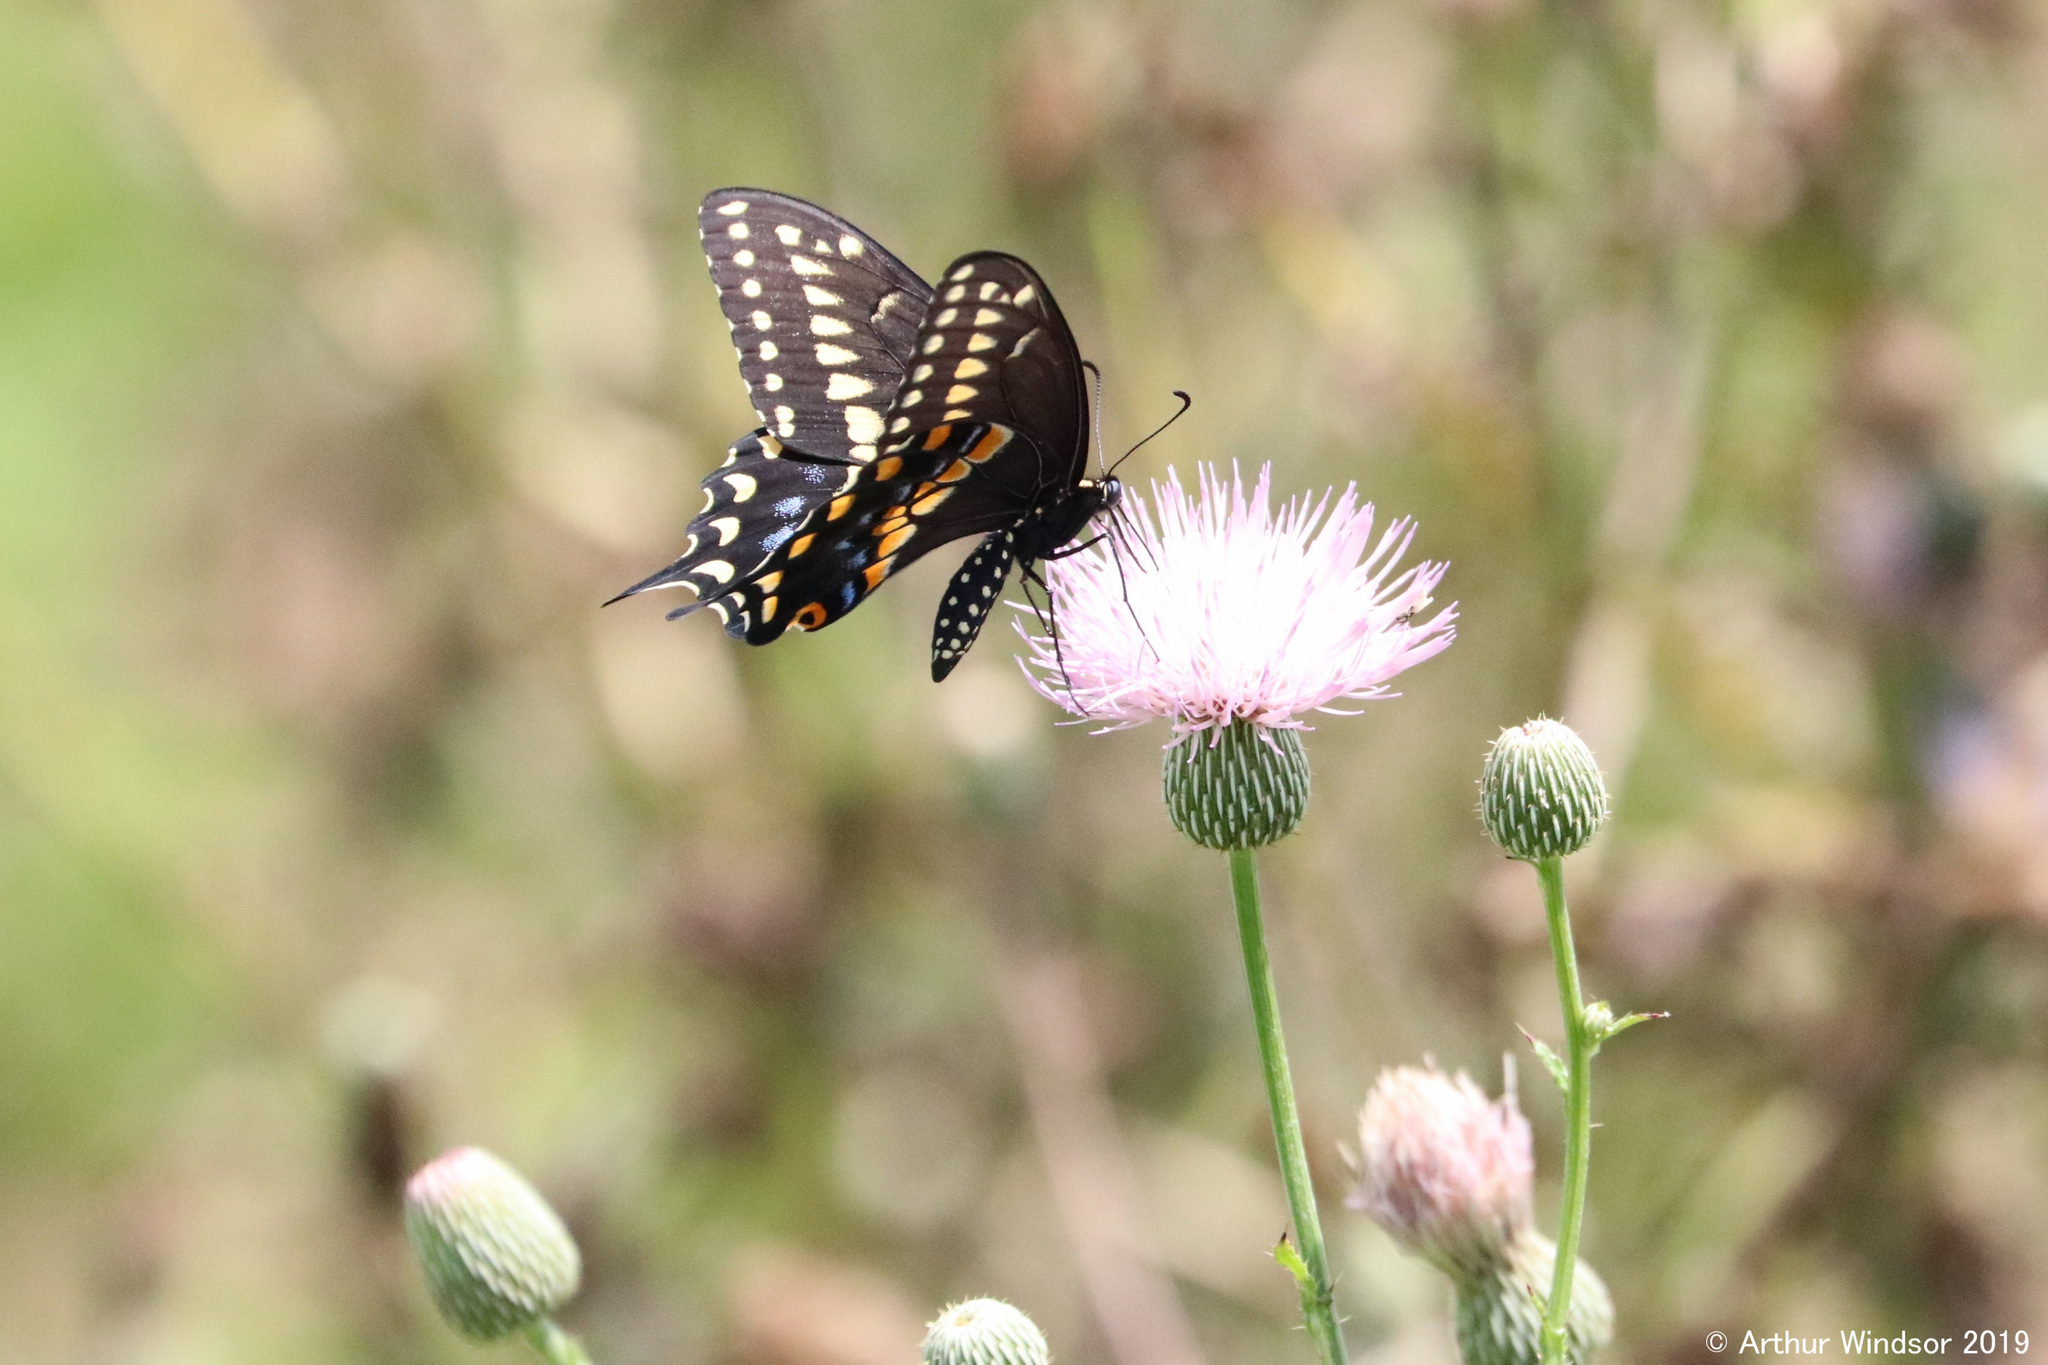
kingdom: Animalia
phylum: Arthropoda
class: Insecta
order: Lepidoptera
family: Papilionidae
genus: Papilio
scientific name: Papilio polyxenes
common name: Black swallowtail
